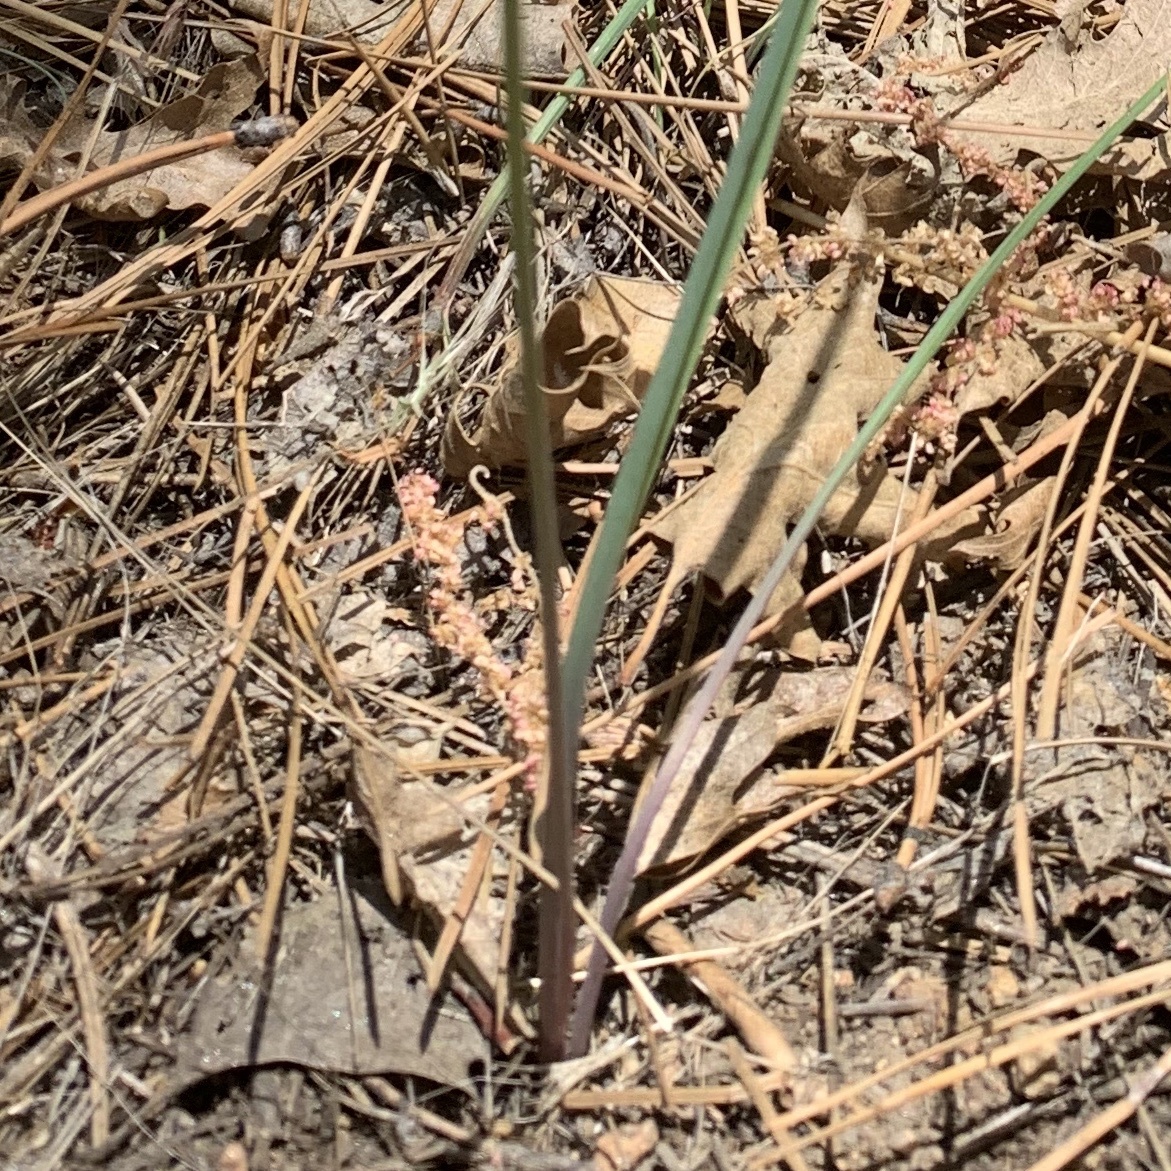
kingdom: Plantae
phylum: Tracheophyta
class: Liliopsida
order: Asparagales
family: Asparagaceae
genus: Dipterostemon
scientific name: Dipterostemon capitatus
